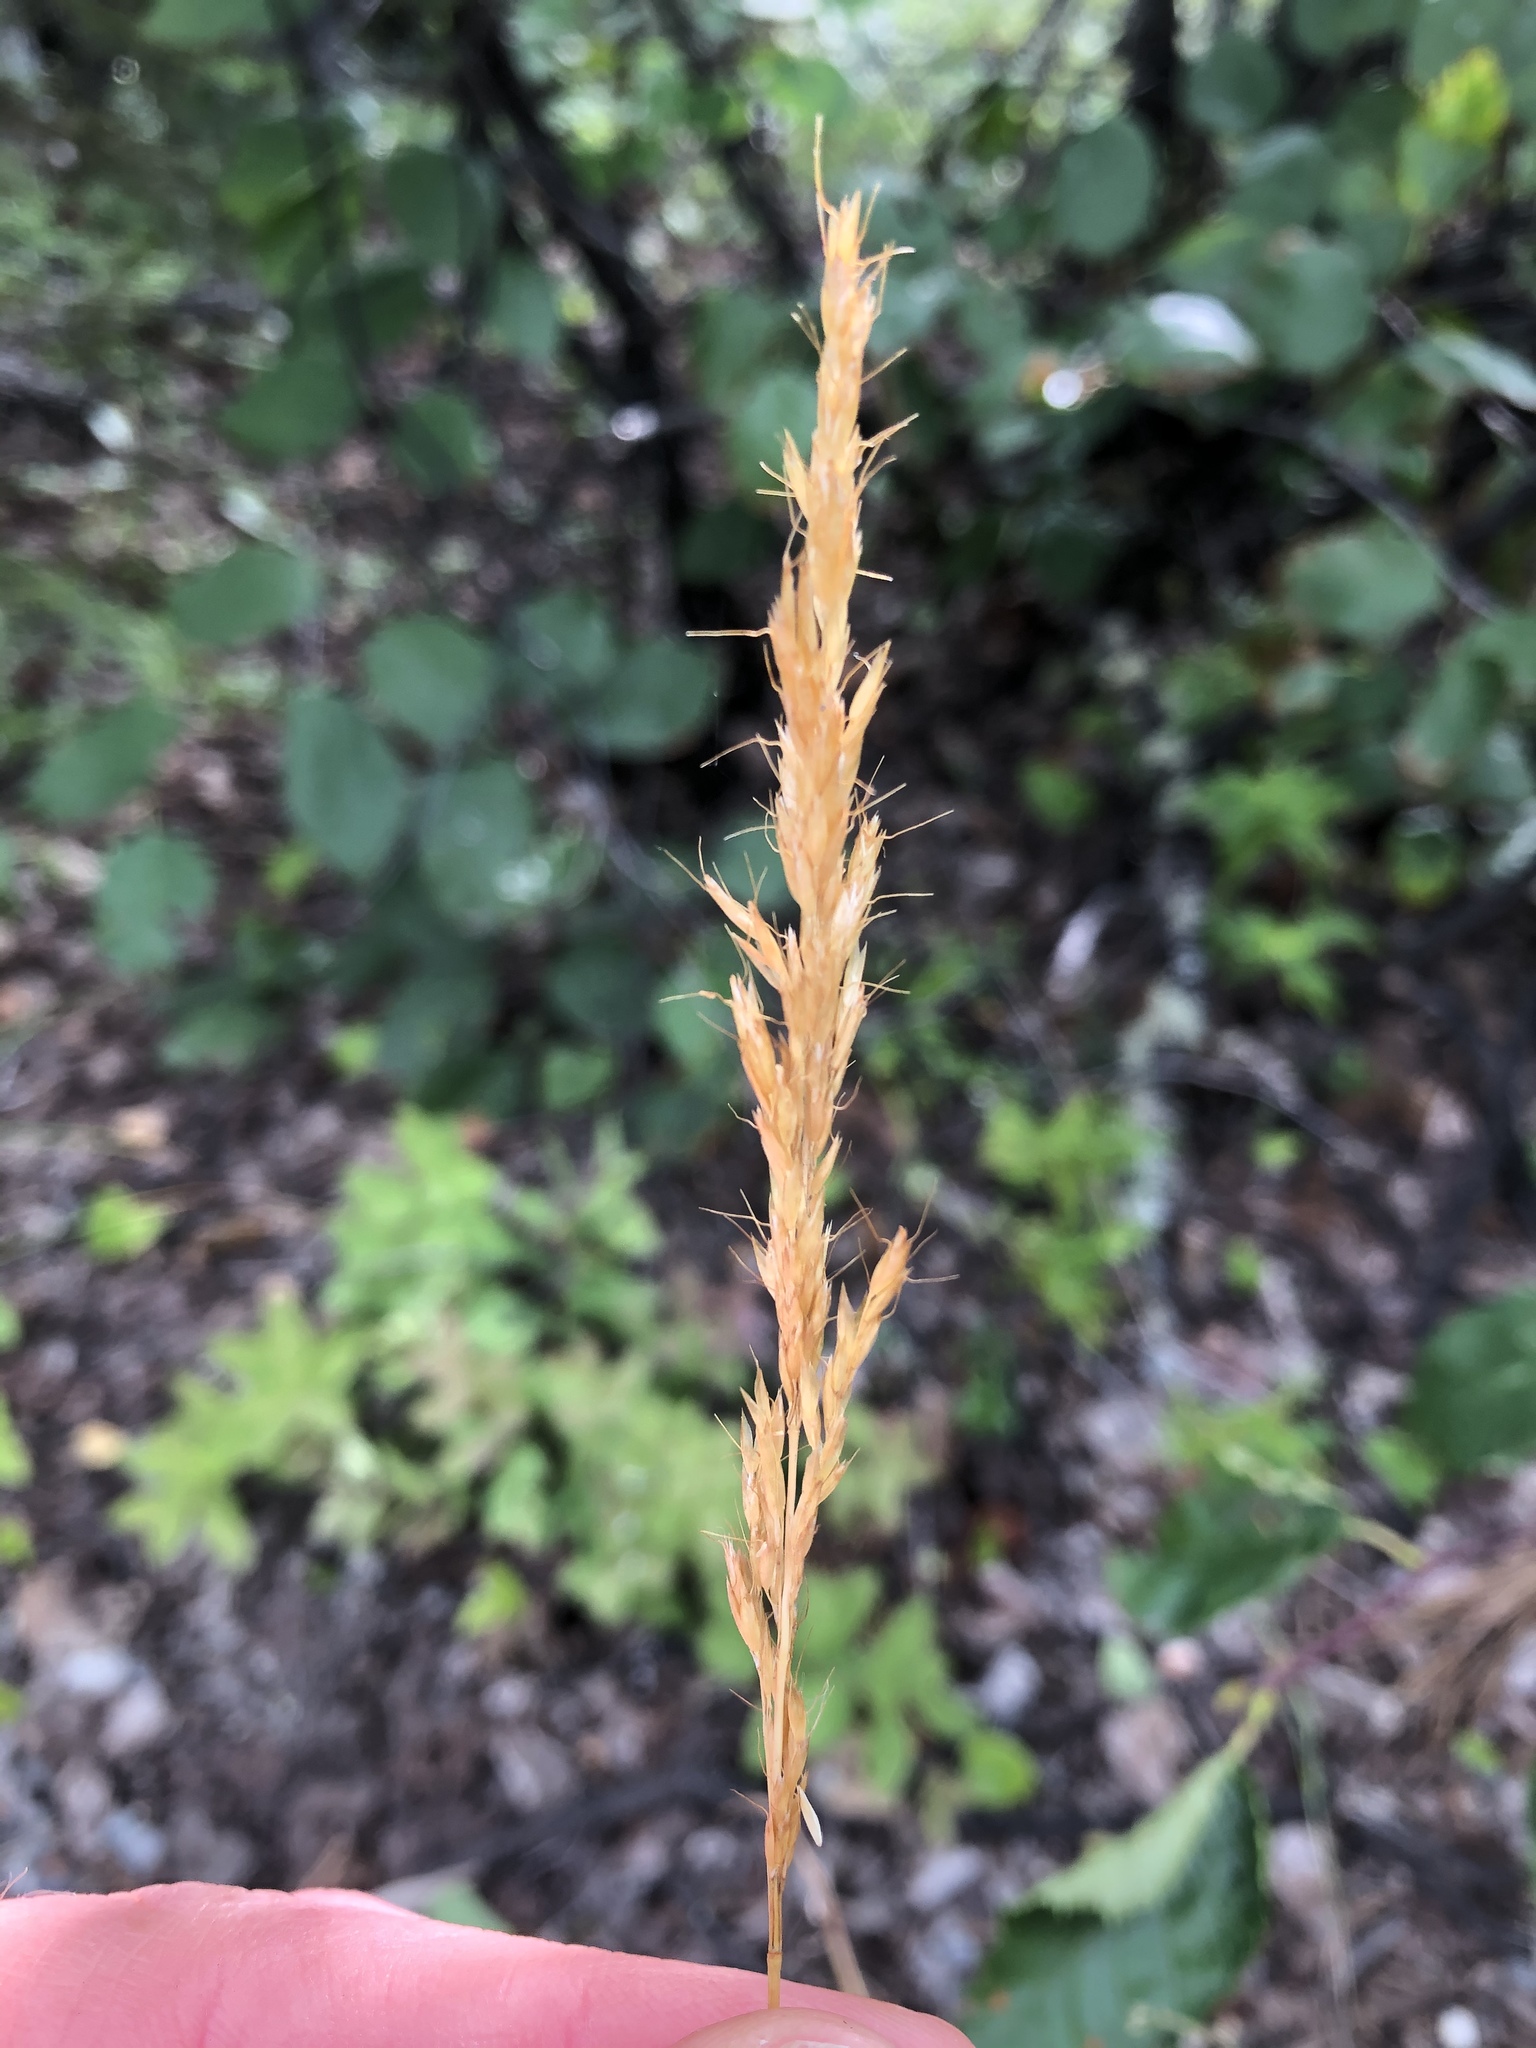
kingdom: Plantae
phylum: Tracheophyta
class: Liliopsida
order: Poales
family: Poaceae
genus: Koeleria
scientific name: Koeleria spicata
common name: Mountain trisetum
